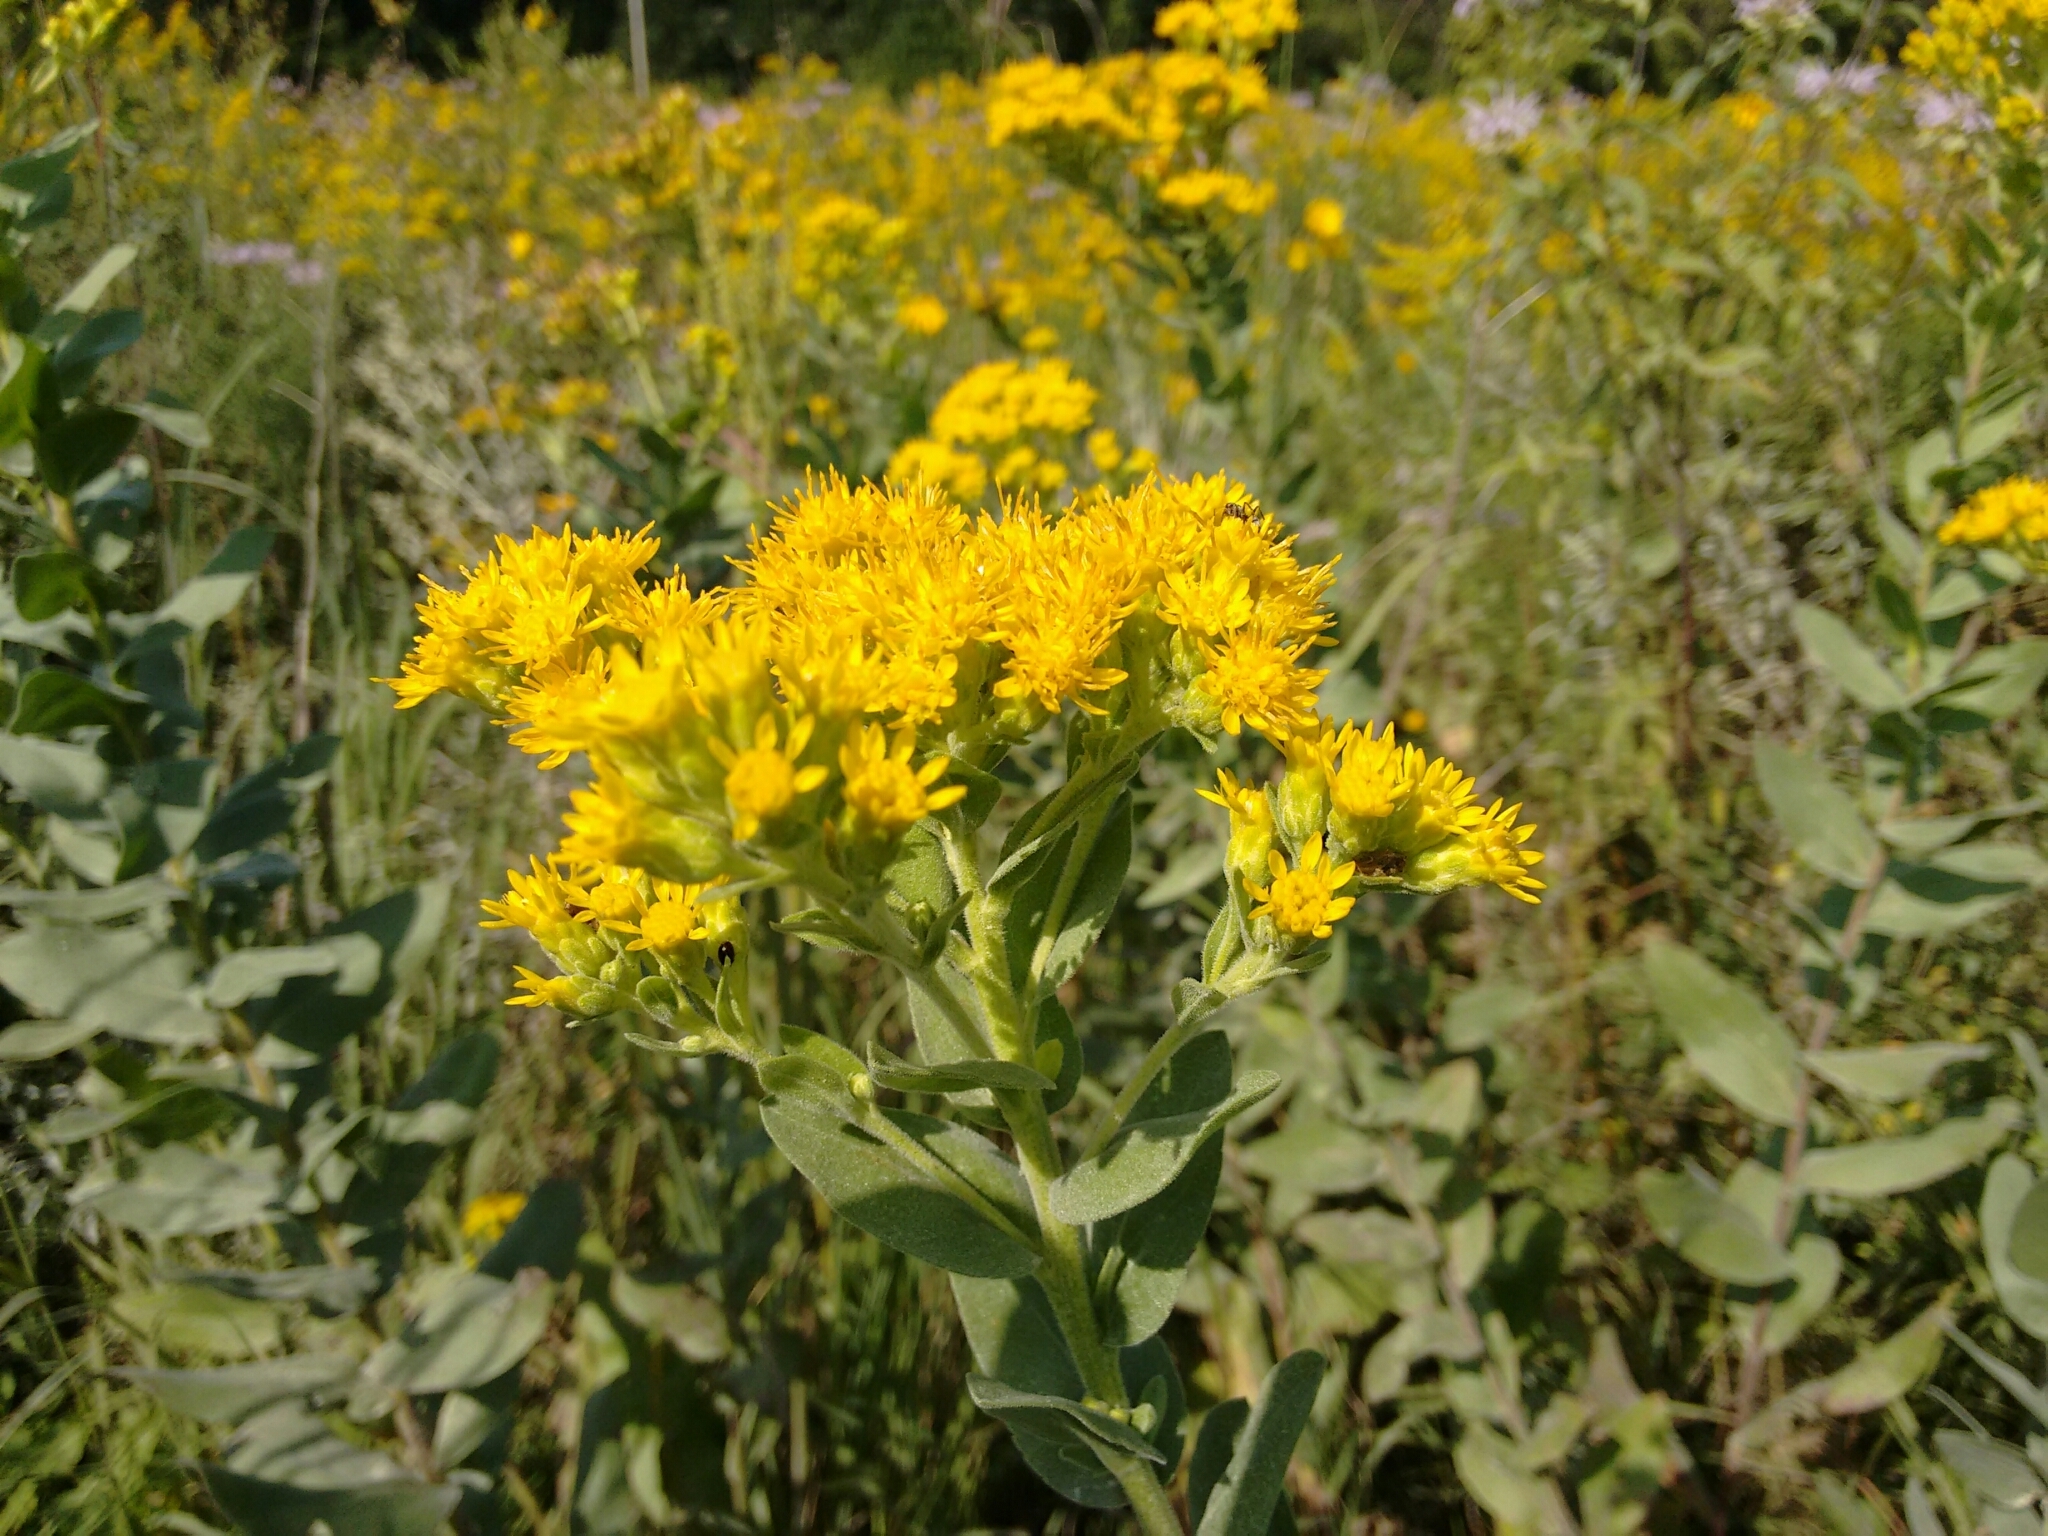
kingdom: Plantae
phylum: Tracheophyta
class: Magnoliopsida
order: Asterales
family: Asteraceae
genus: Solidago
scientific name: Solidago rigida
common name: Rigid goldenrod
